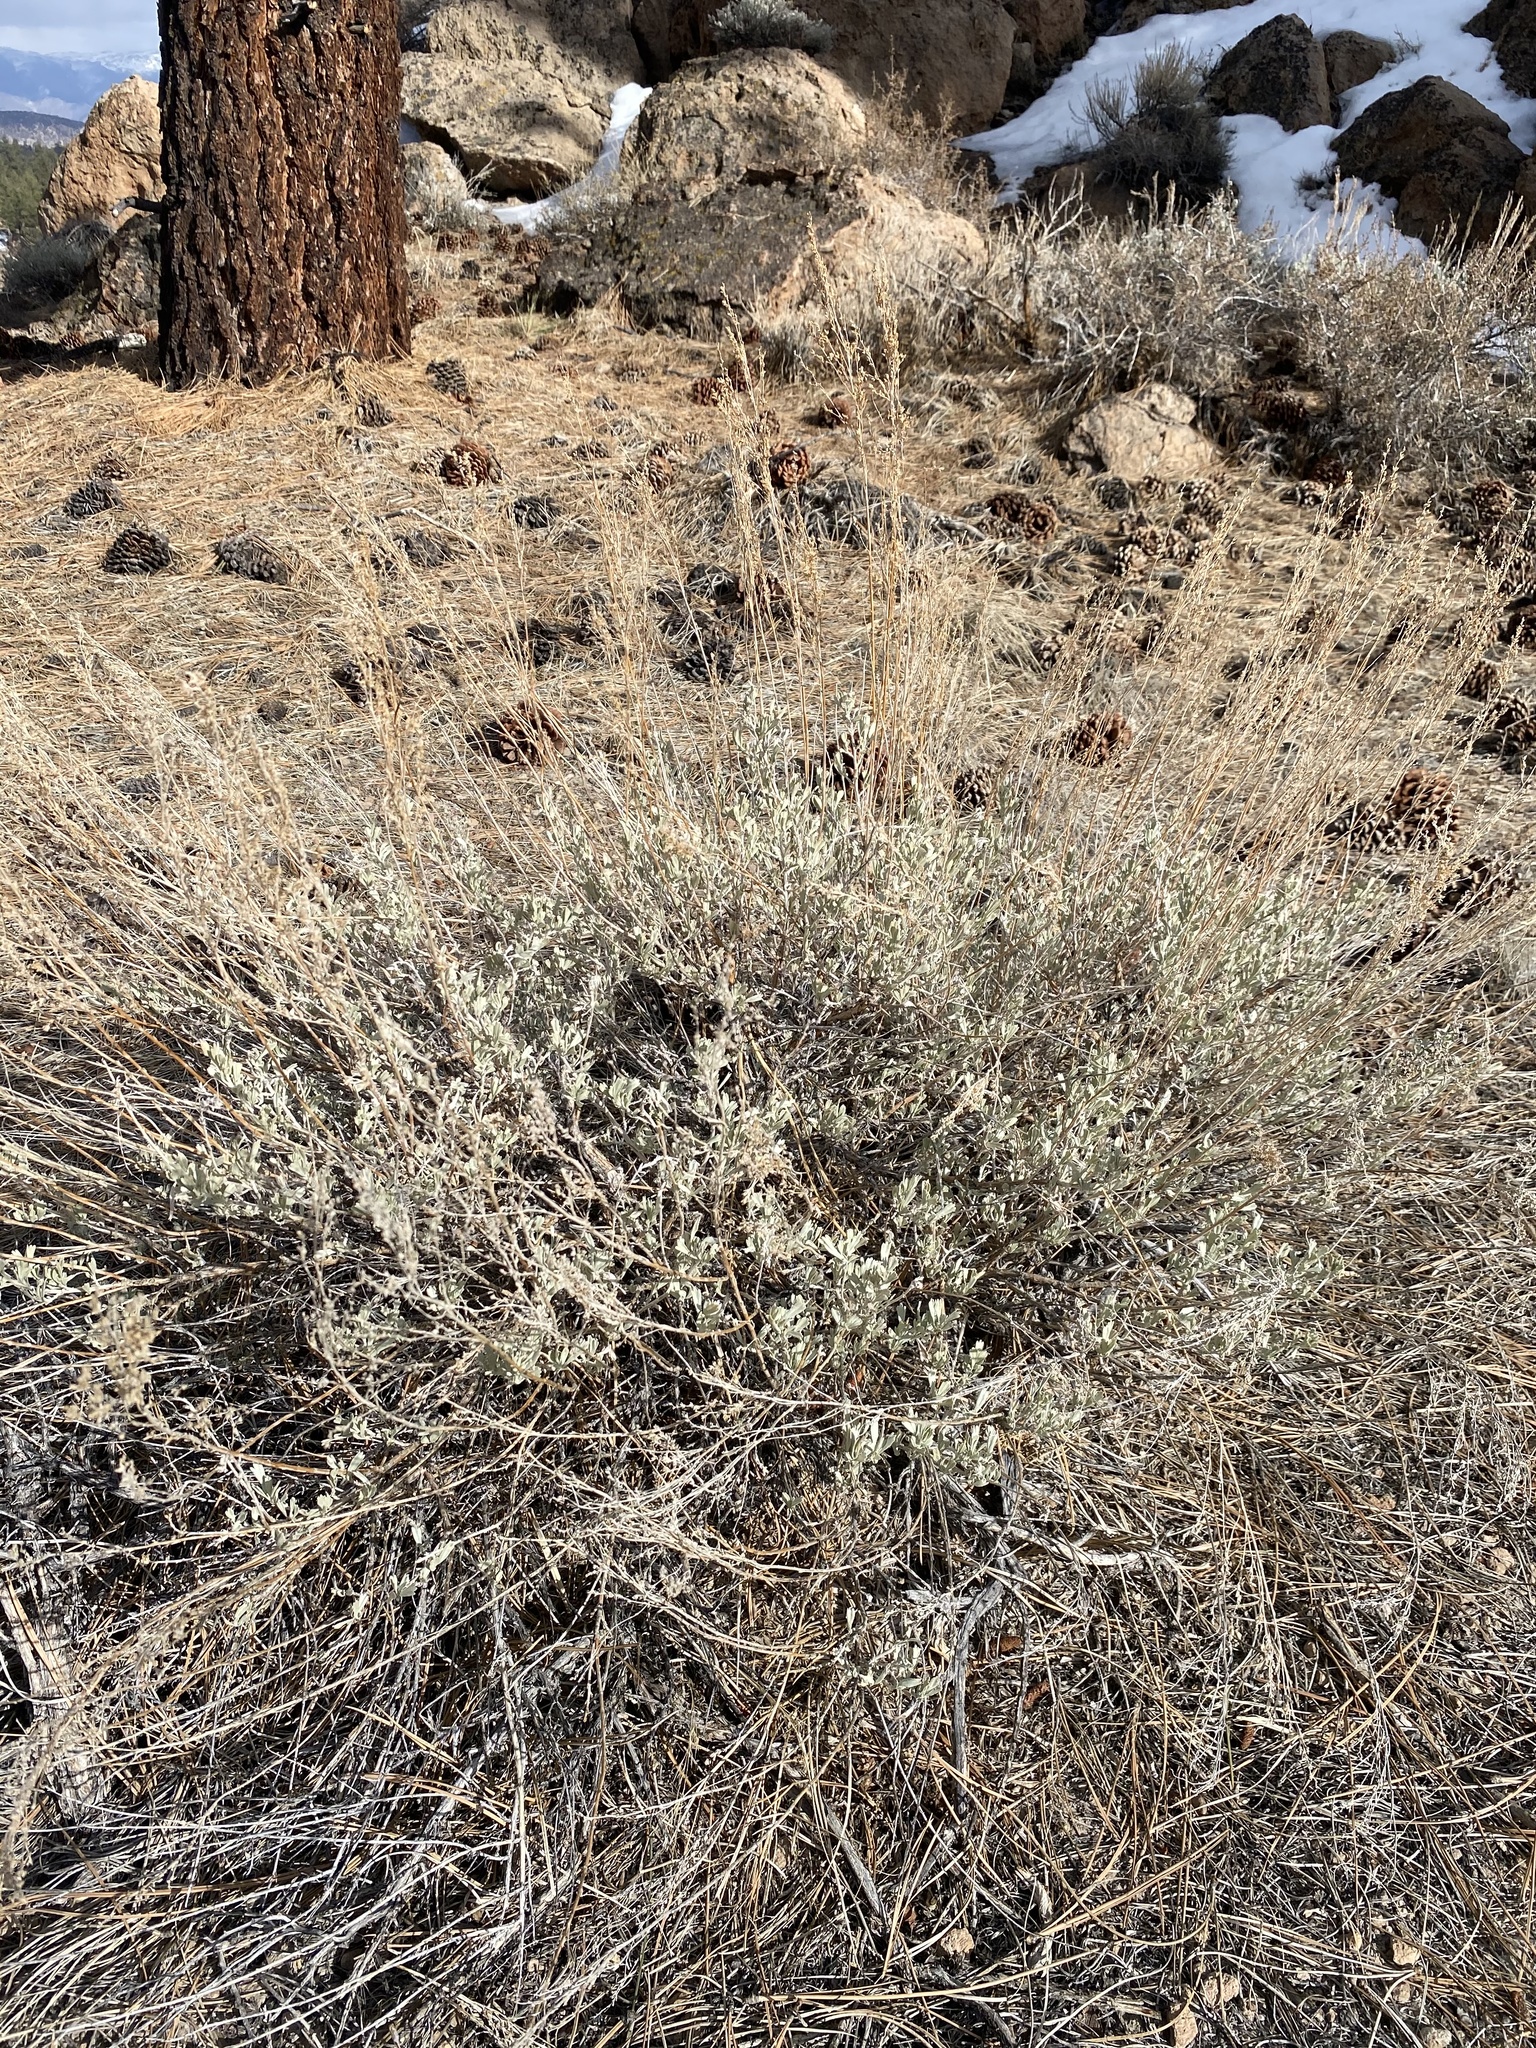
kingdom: Plantae
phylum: Tracheophyta
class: Magnoliopsida
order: Asterales
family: Asteraceae
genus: Artemisia
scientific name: Artemisia tridentata
